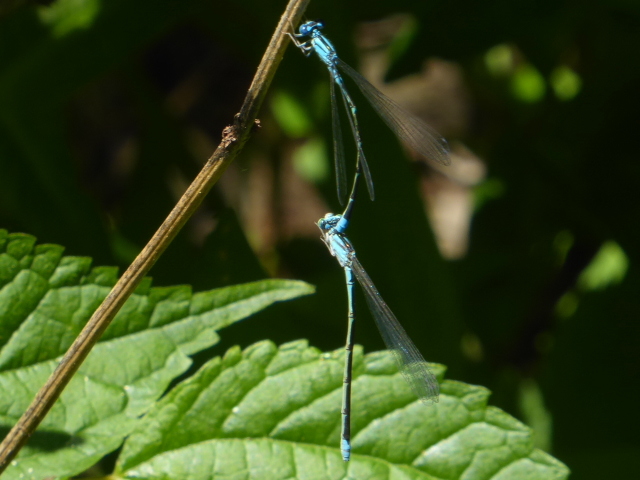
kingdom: Animalia
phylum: Arthropoda
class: Insecta
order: Odonata
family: Coenagrionidae
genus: Enallagma
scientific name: Enallagma traviatum
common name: Slender bluet
